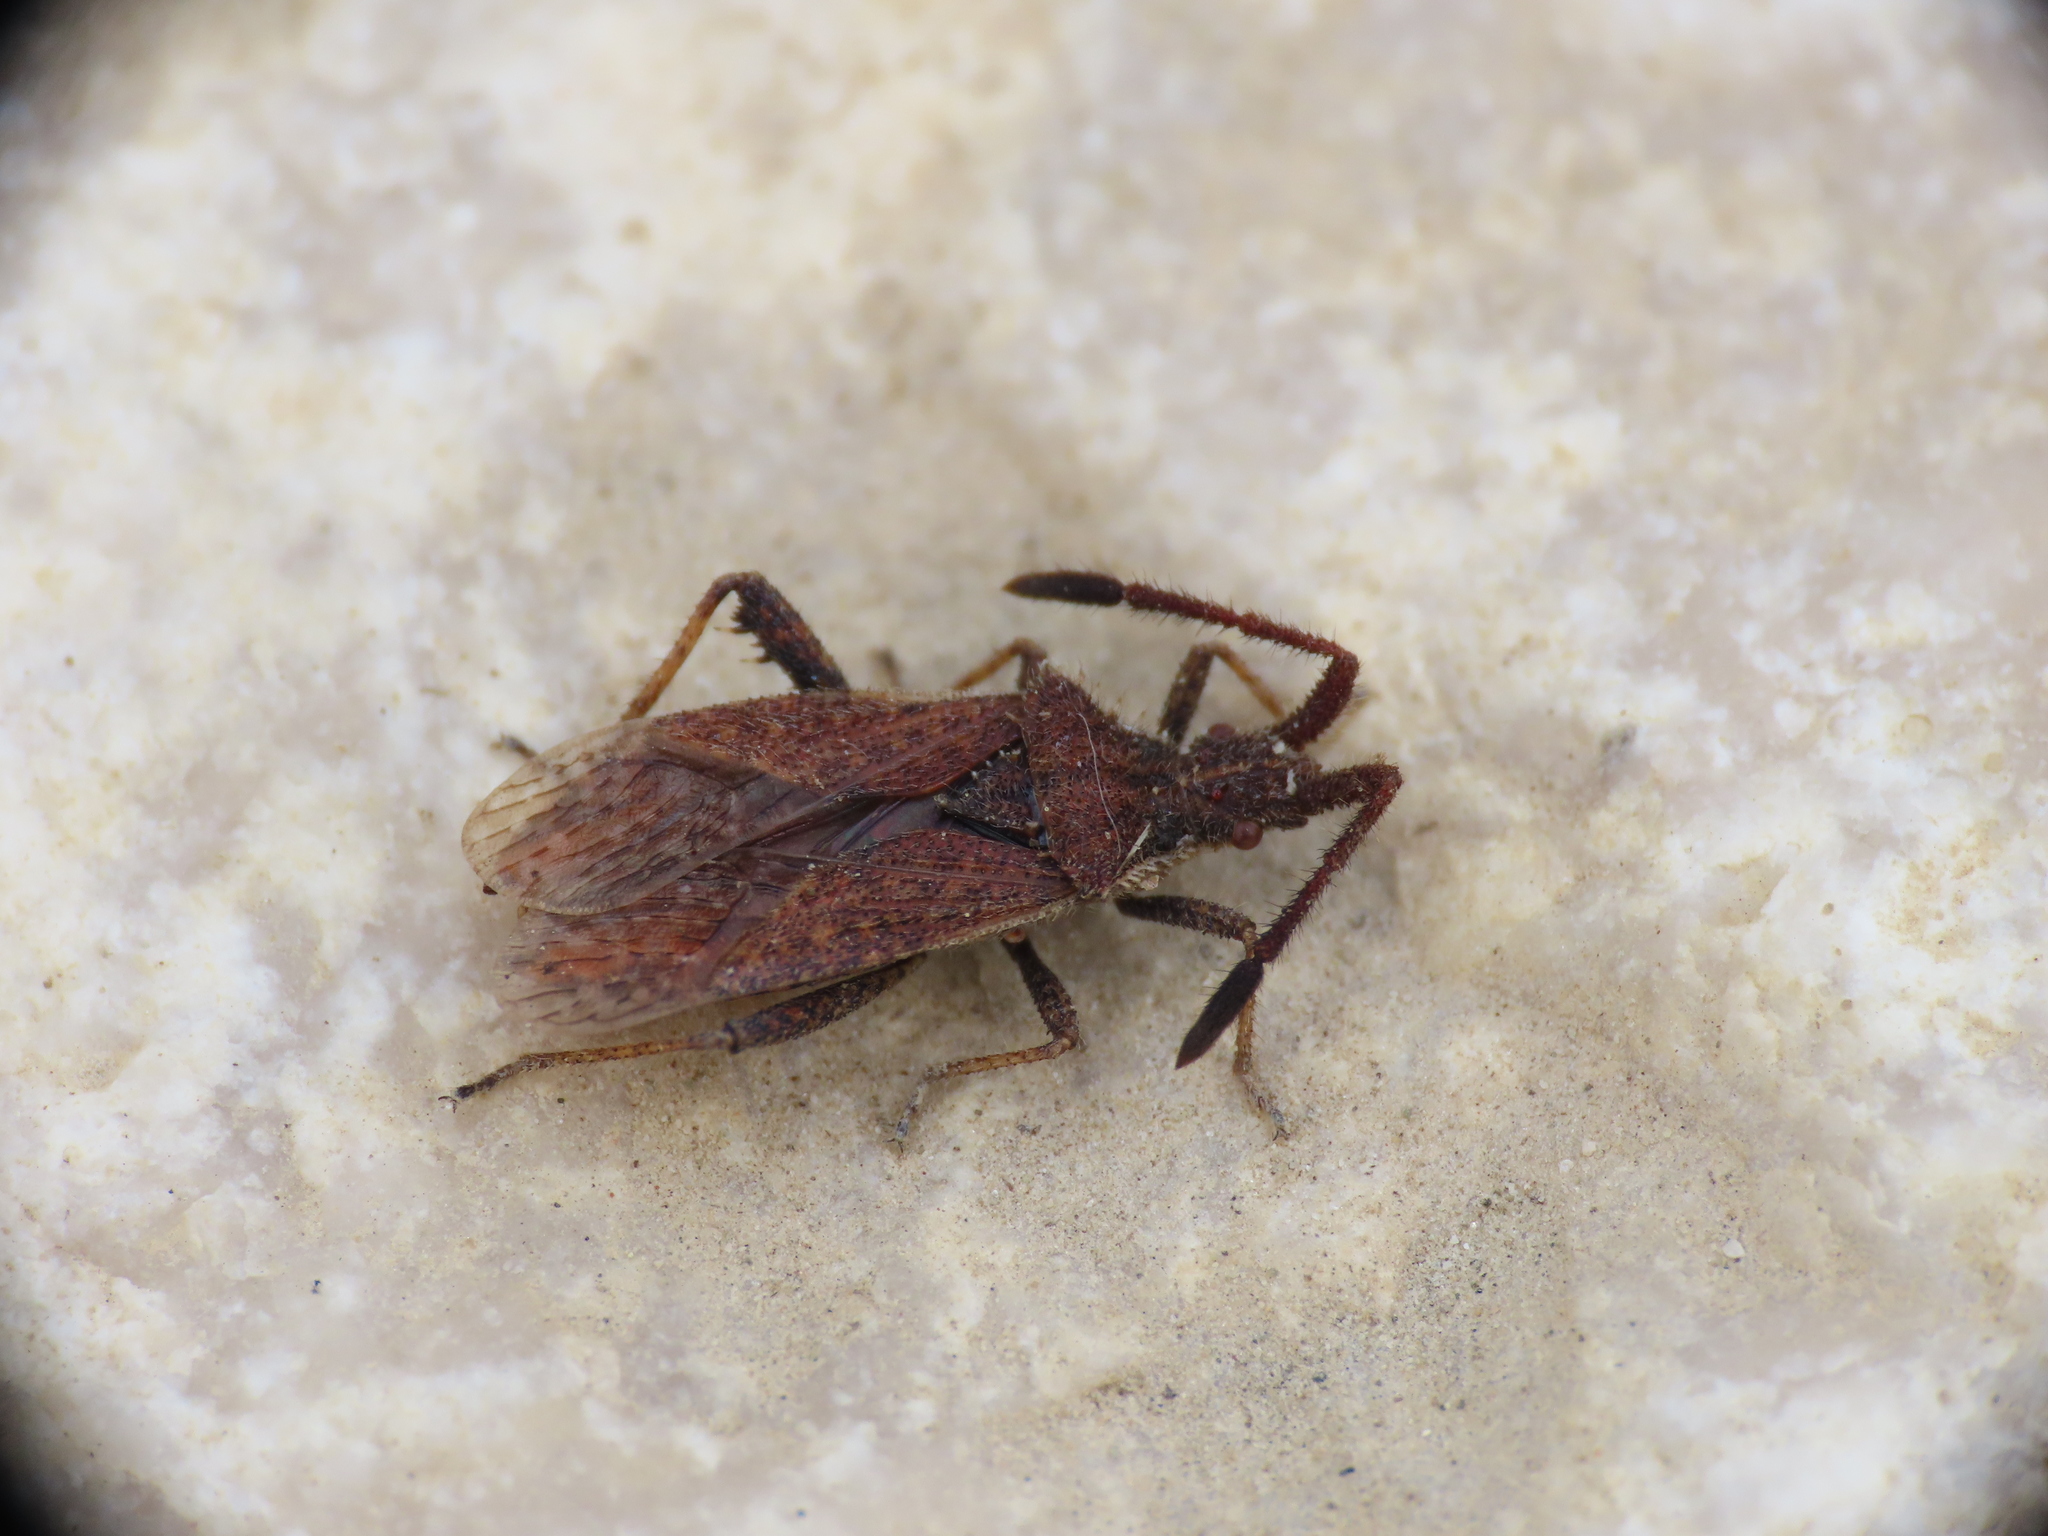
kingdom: Animalia
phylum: Arthropoda
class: Insecta
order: Hemiptera
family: Coreidae
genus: Coriomeris
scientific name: Coriomeris denticulatus
